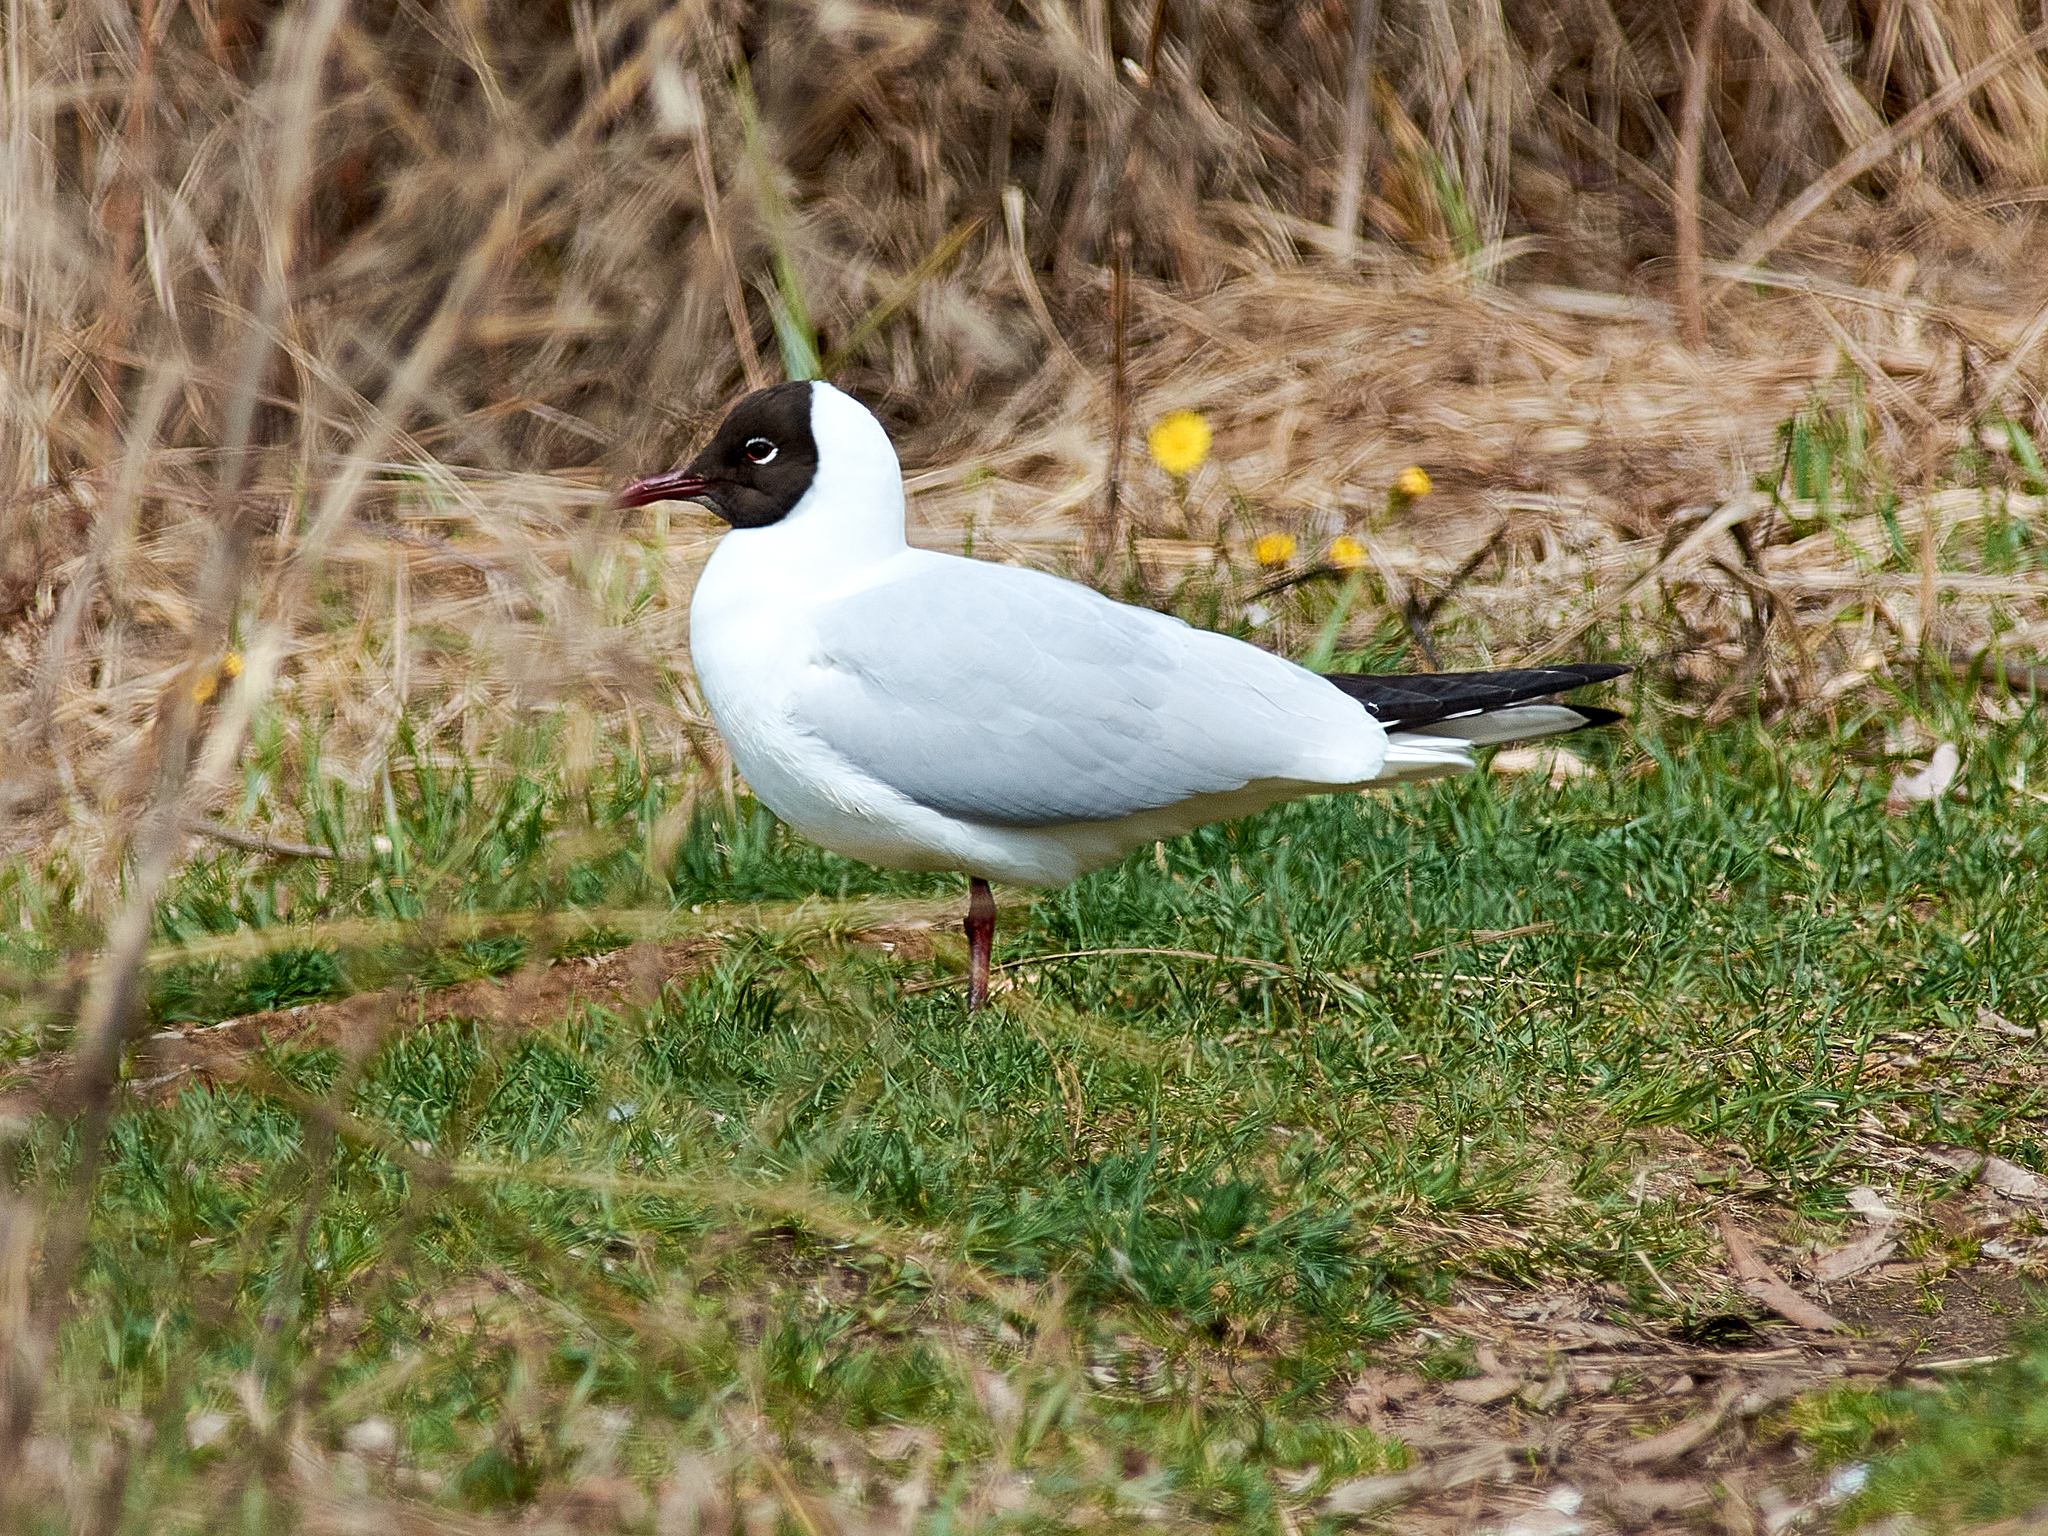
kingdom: Animalia
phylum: Chordata
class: Aves
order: Charadriiformes
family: Laridae
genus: Chroicocephalus
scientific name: Chroicocephalus ridibundus
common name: Black-headed gull
